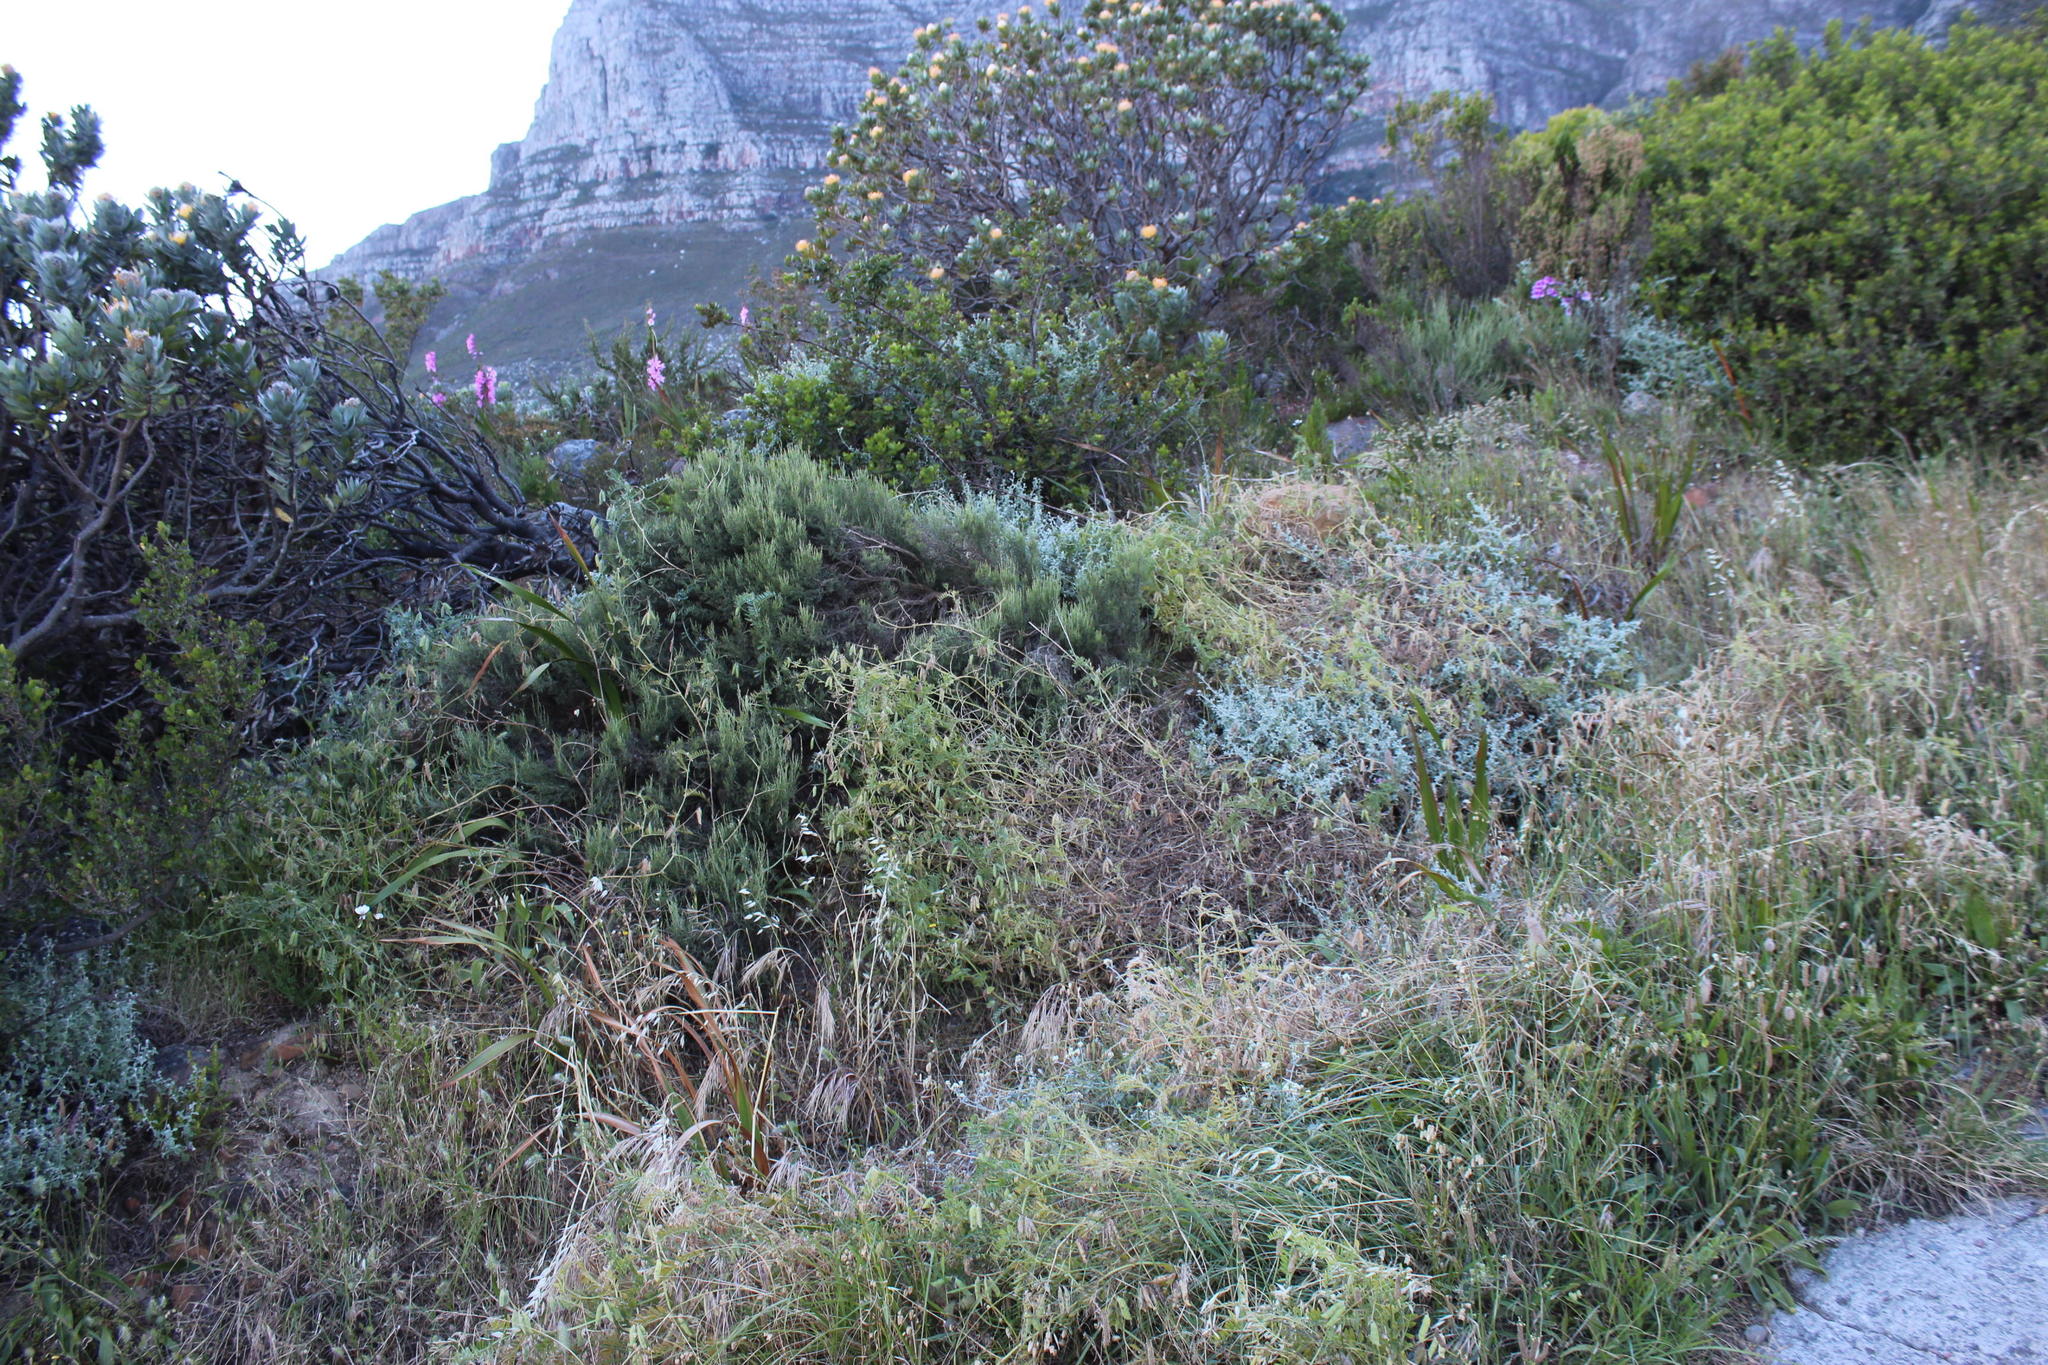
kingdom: Plantae
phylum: Tracheophyta
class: Magnoliopsida
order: Fabales
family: Fabaceae
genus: Vicia
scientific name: Vicia benghalensis
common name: Purple vetch
